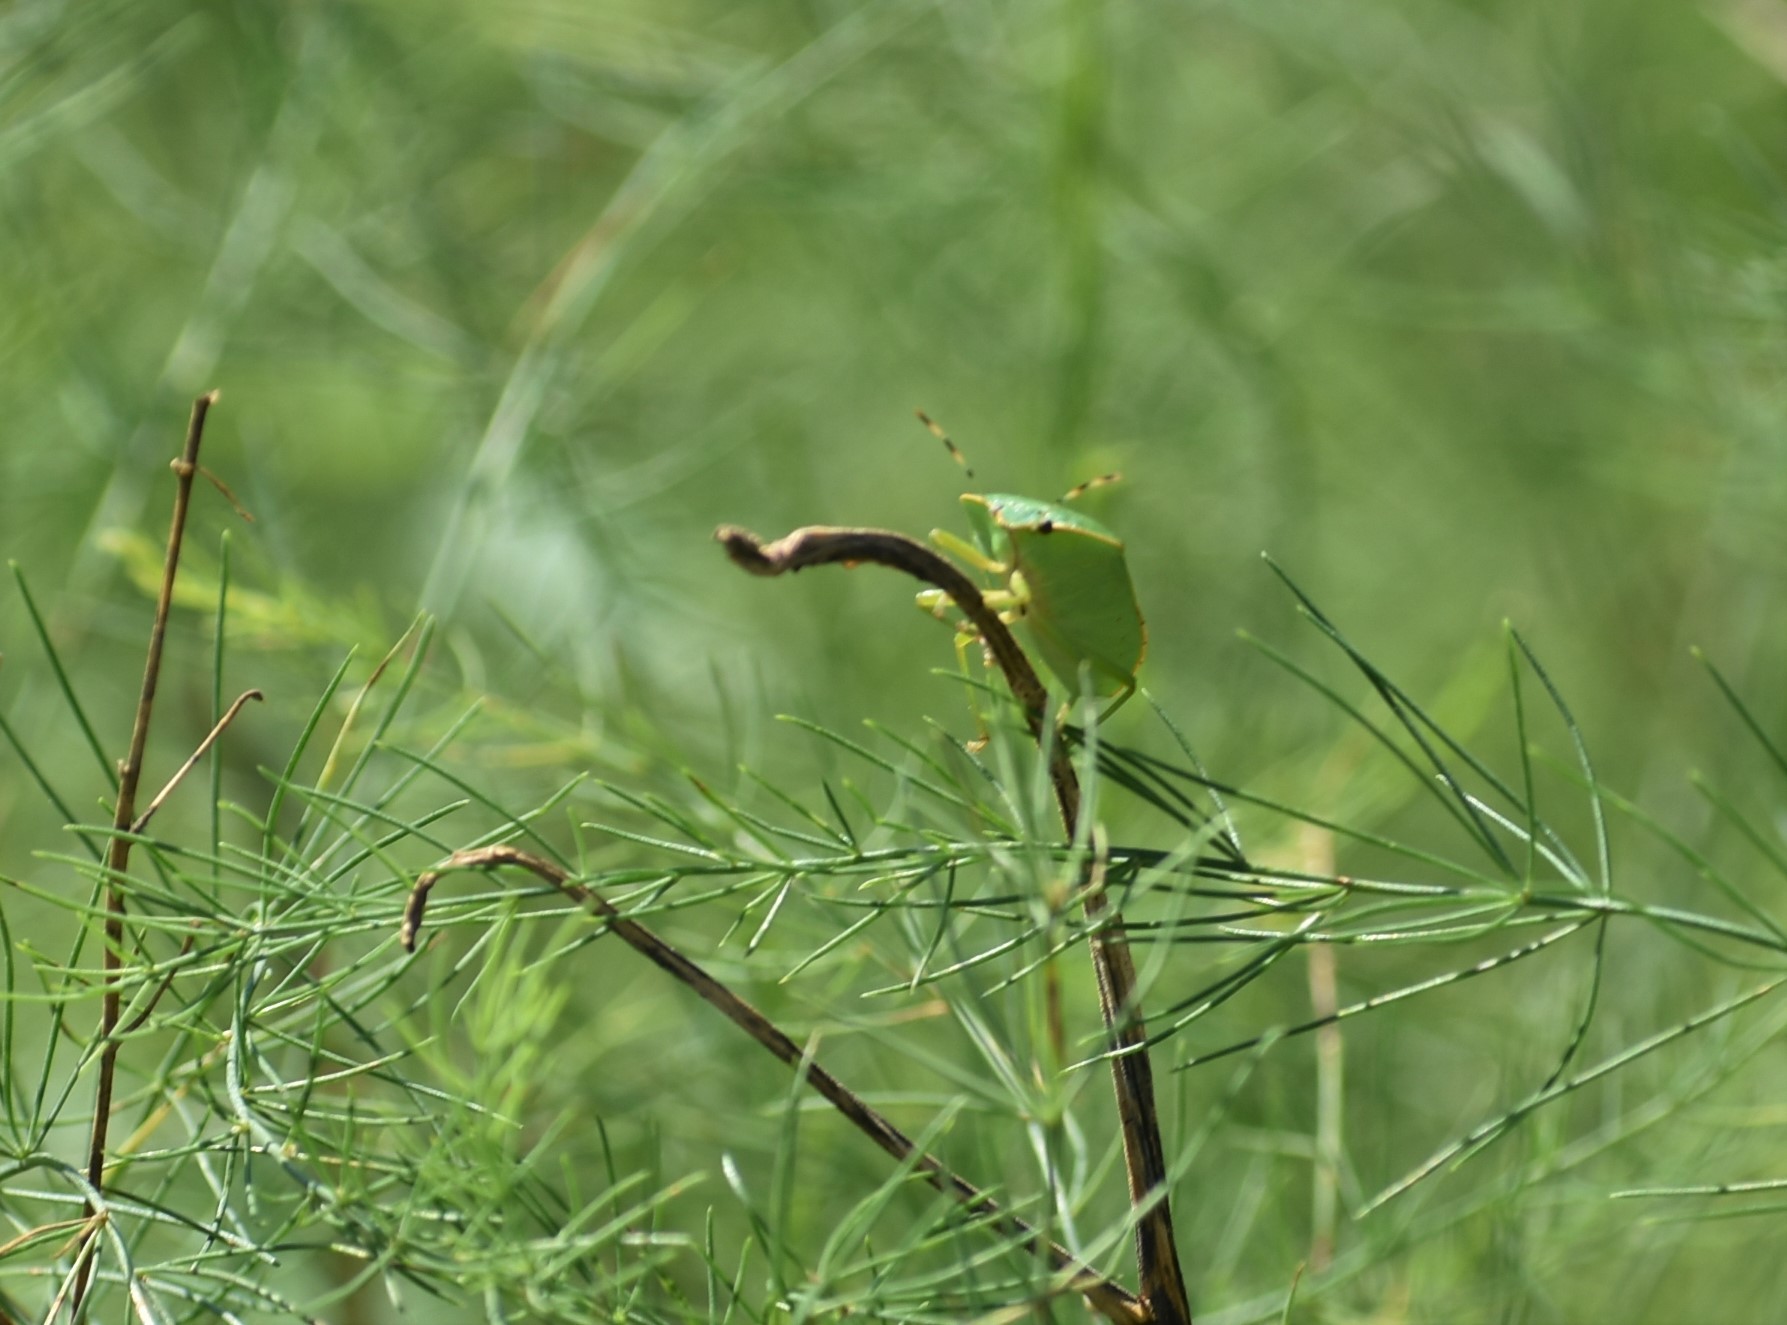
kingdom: Animalia
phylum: Arthropoda
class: Insecta
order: Hemiptera
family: Pentatomidae
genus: Chinavia
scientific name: Chinavia hilaris
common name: Green stink bug
